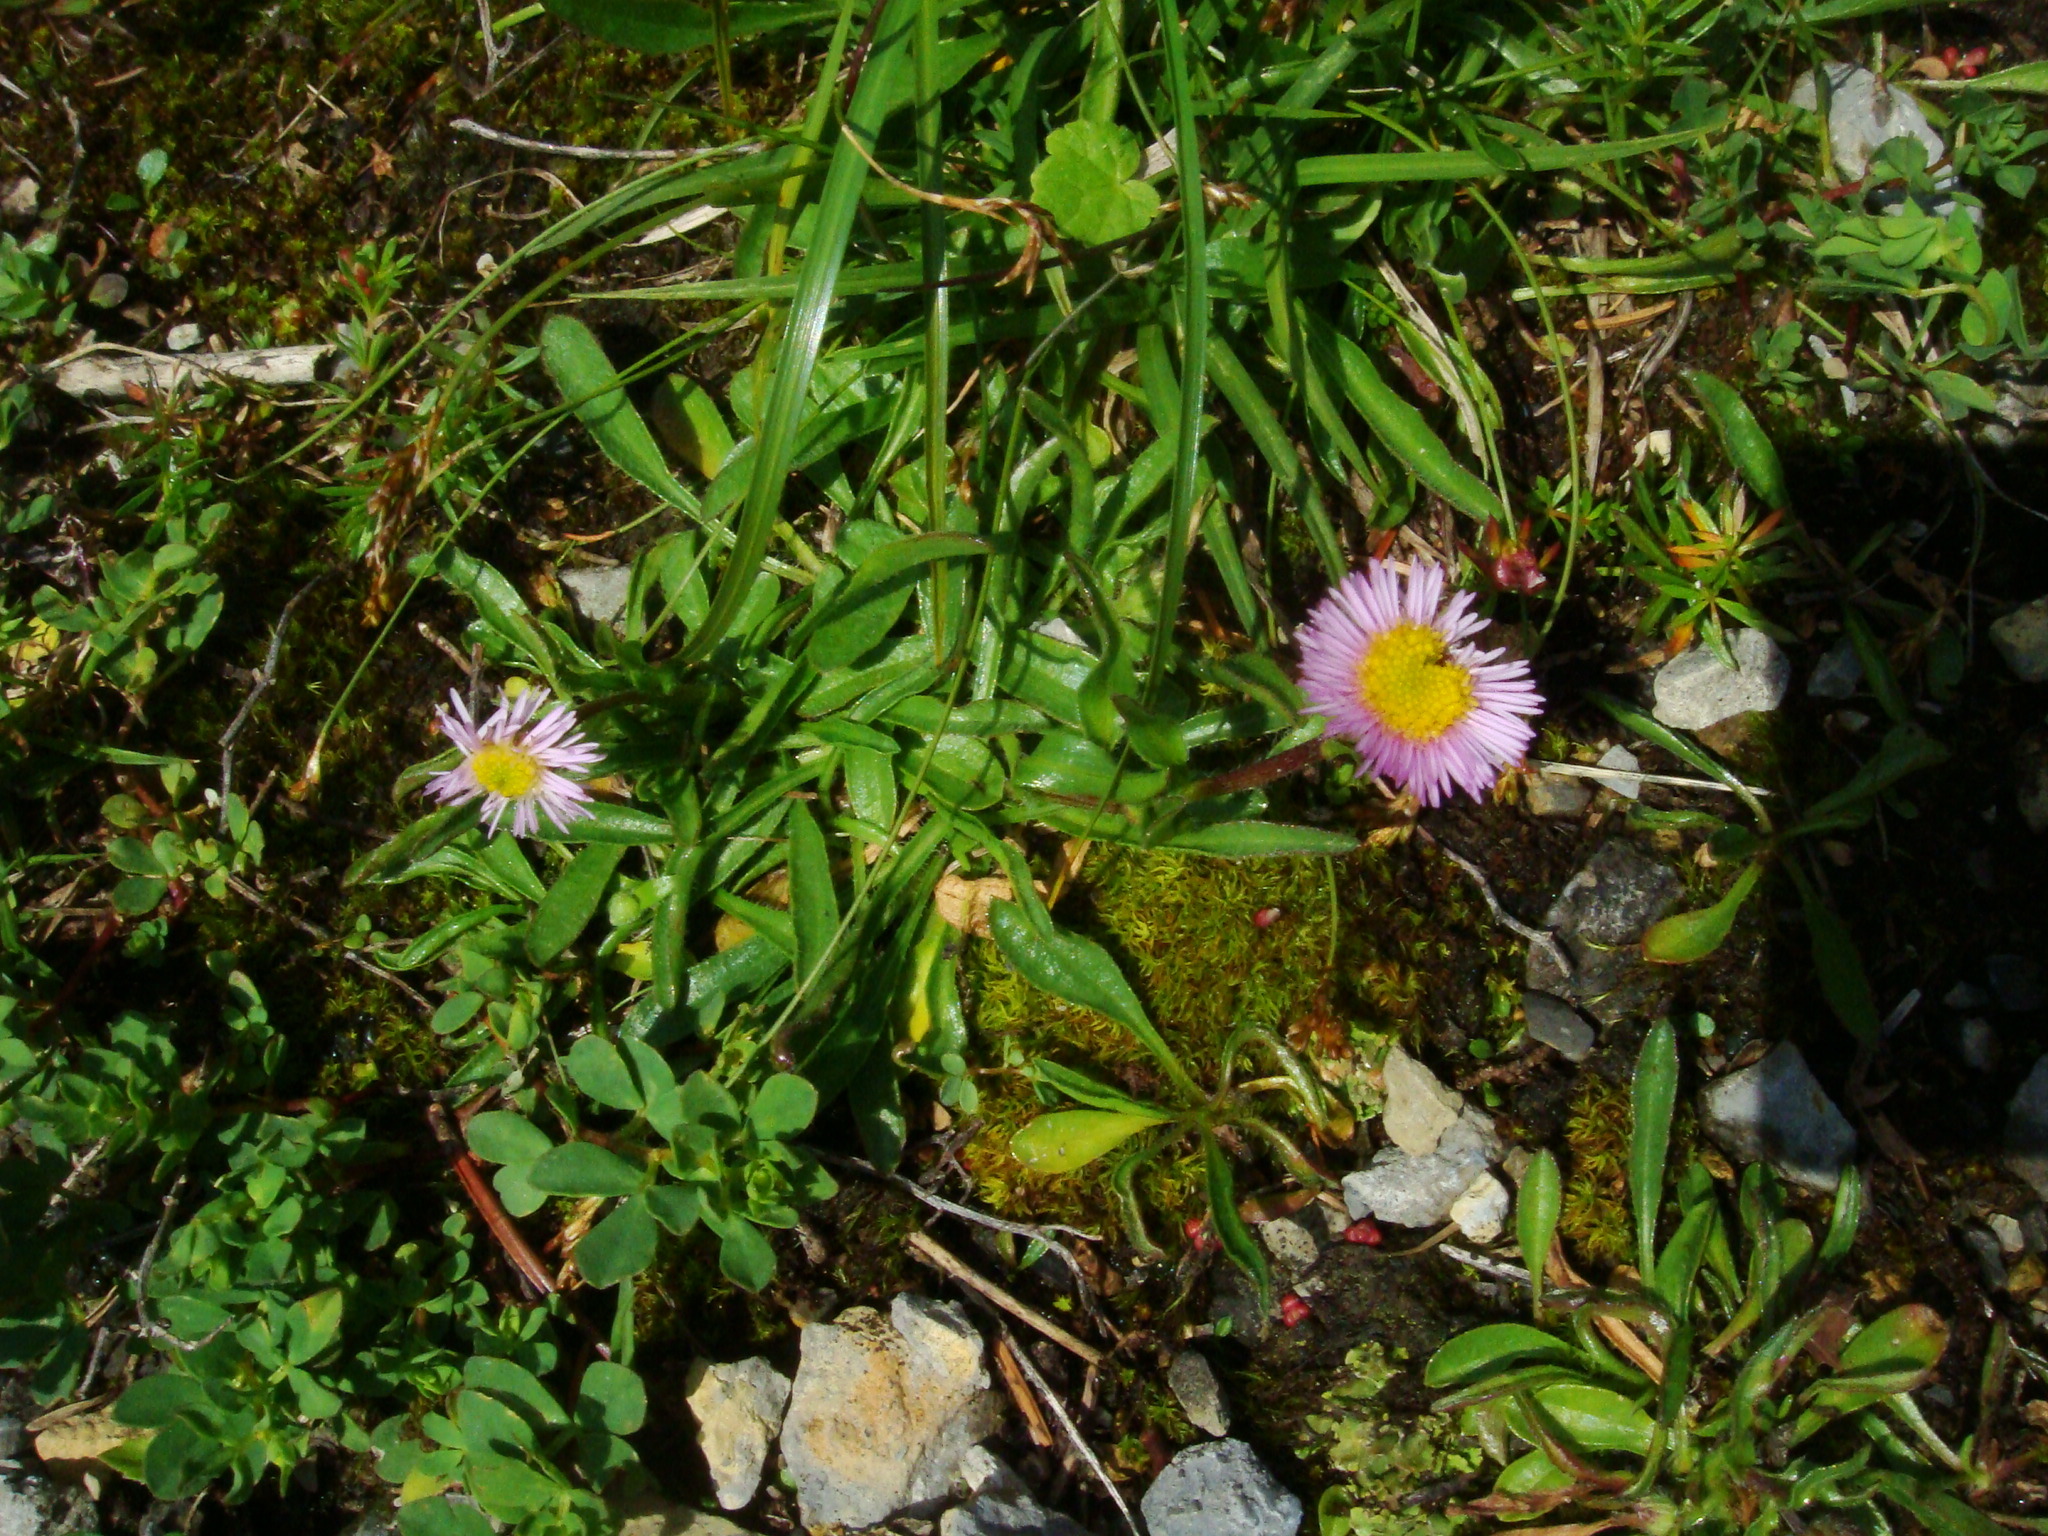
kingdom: Plantae
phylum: Tracheophyta
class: Magnoliopsida
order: Asterales
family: Asteraceae
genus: Erigeron
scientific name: Erigeron glabratus
